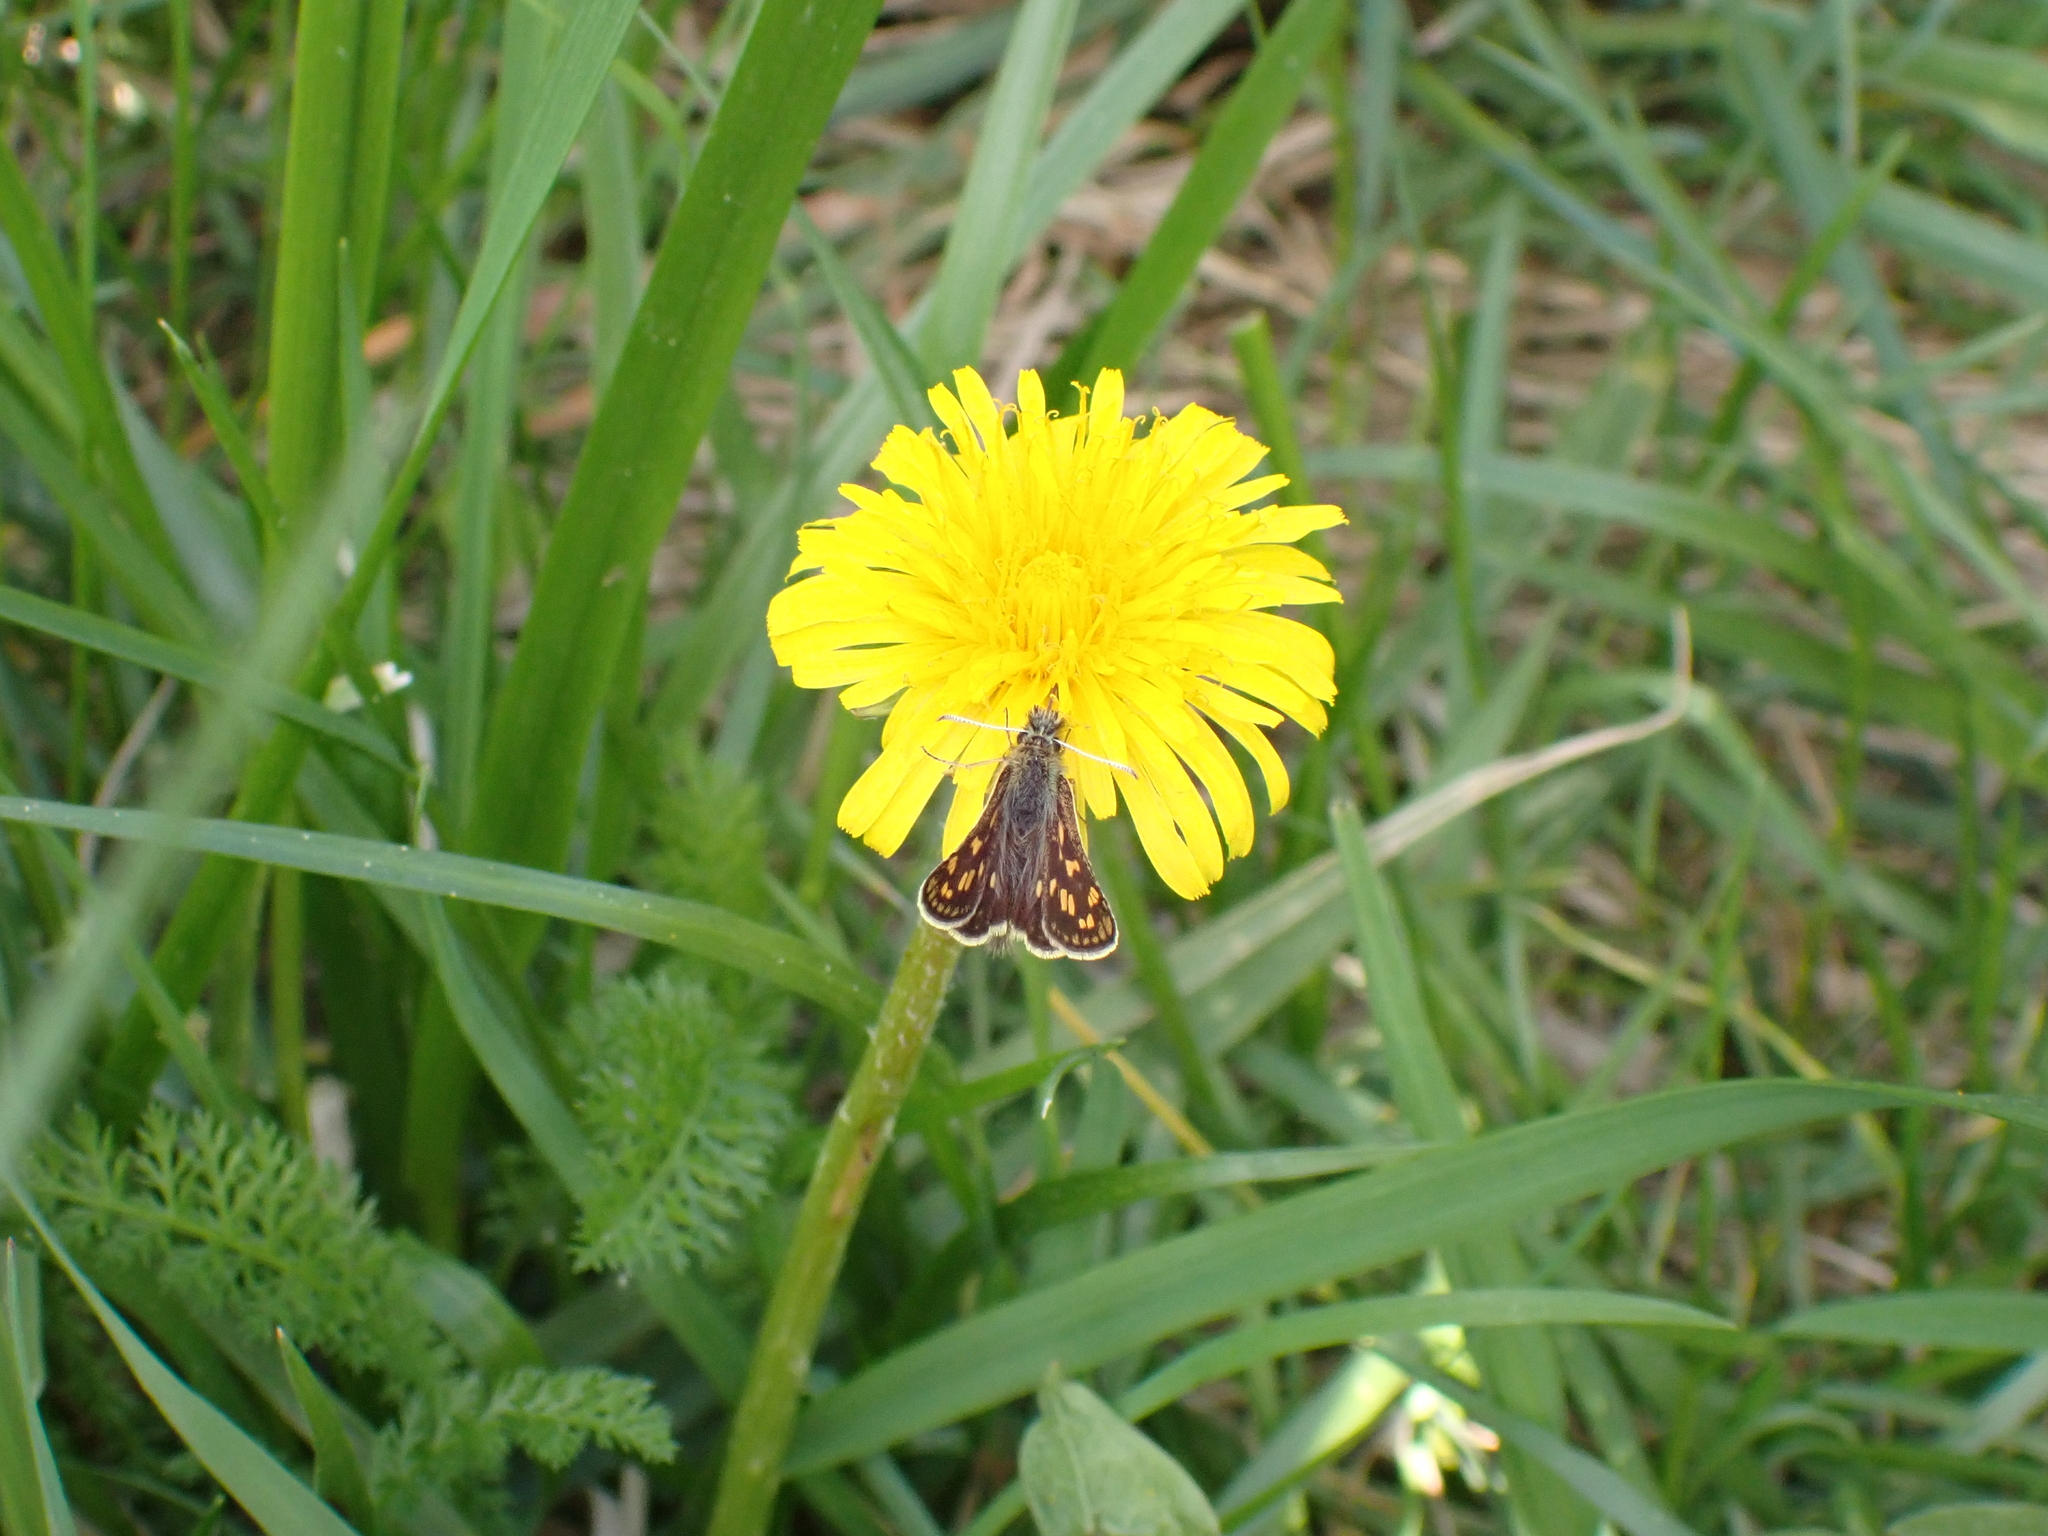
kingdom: Animalia
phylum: Arthropoda
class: Insecta
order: Lepidoptera
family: Hesperiidae
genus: Carterocephalus
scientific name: Carterocephalus palaemon
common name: Chequered skipper
